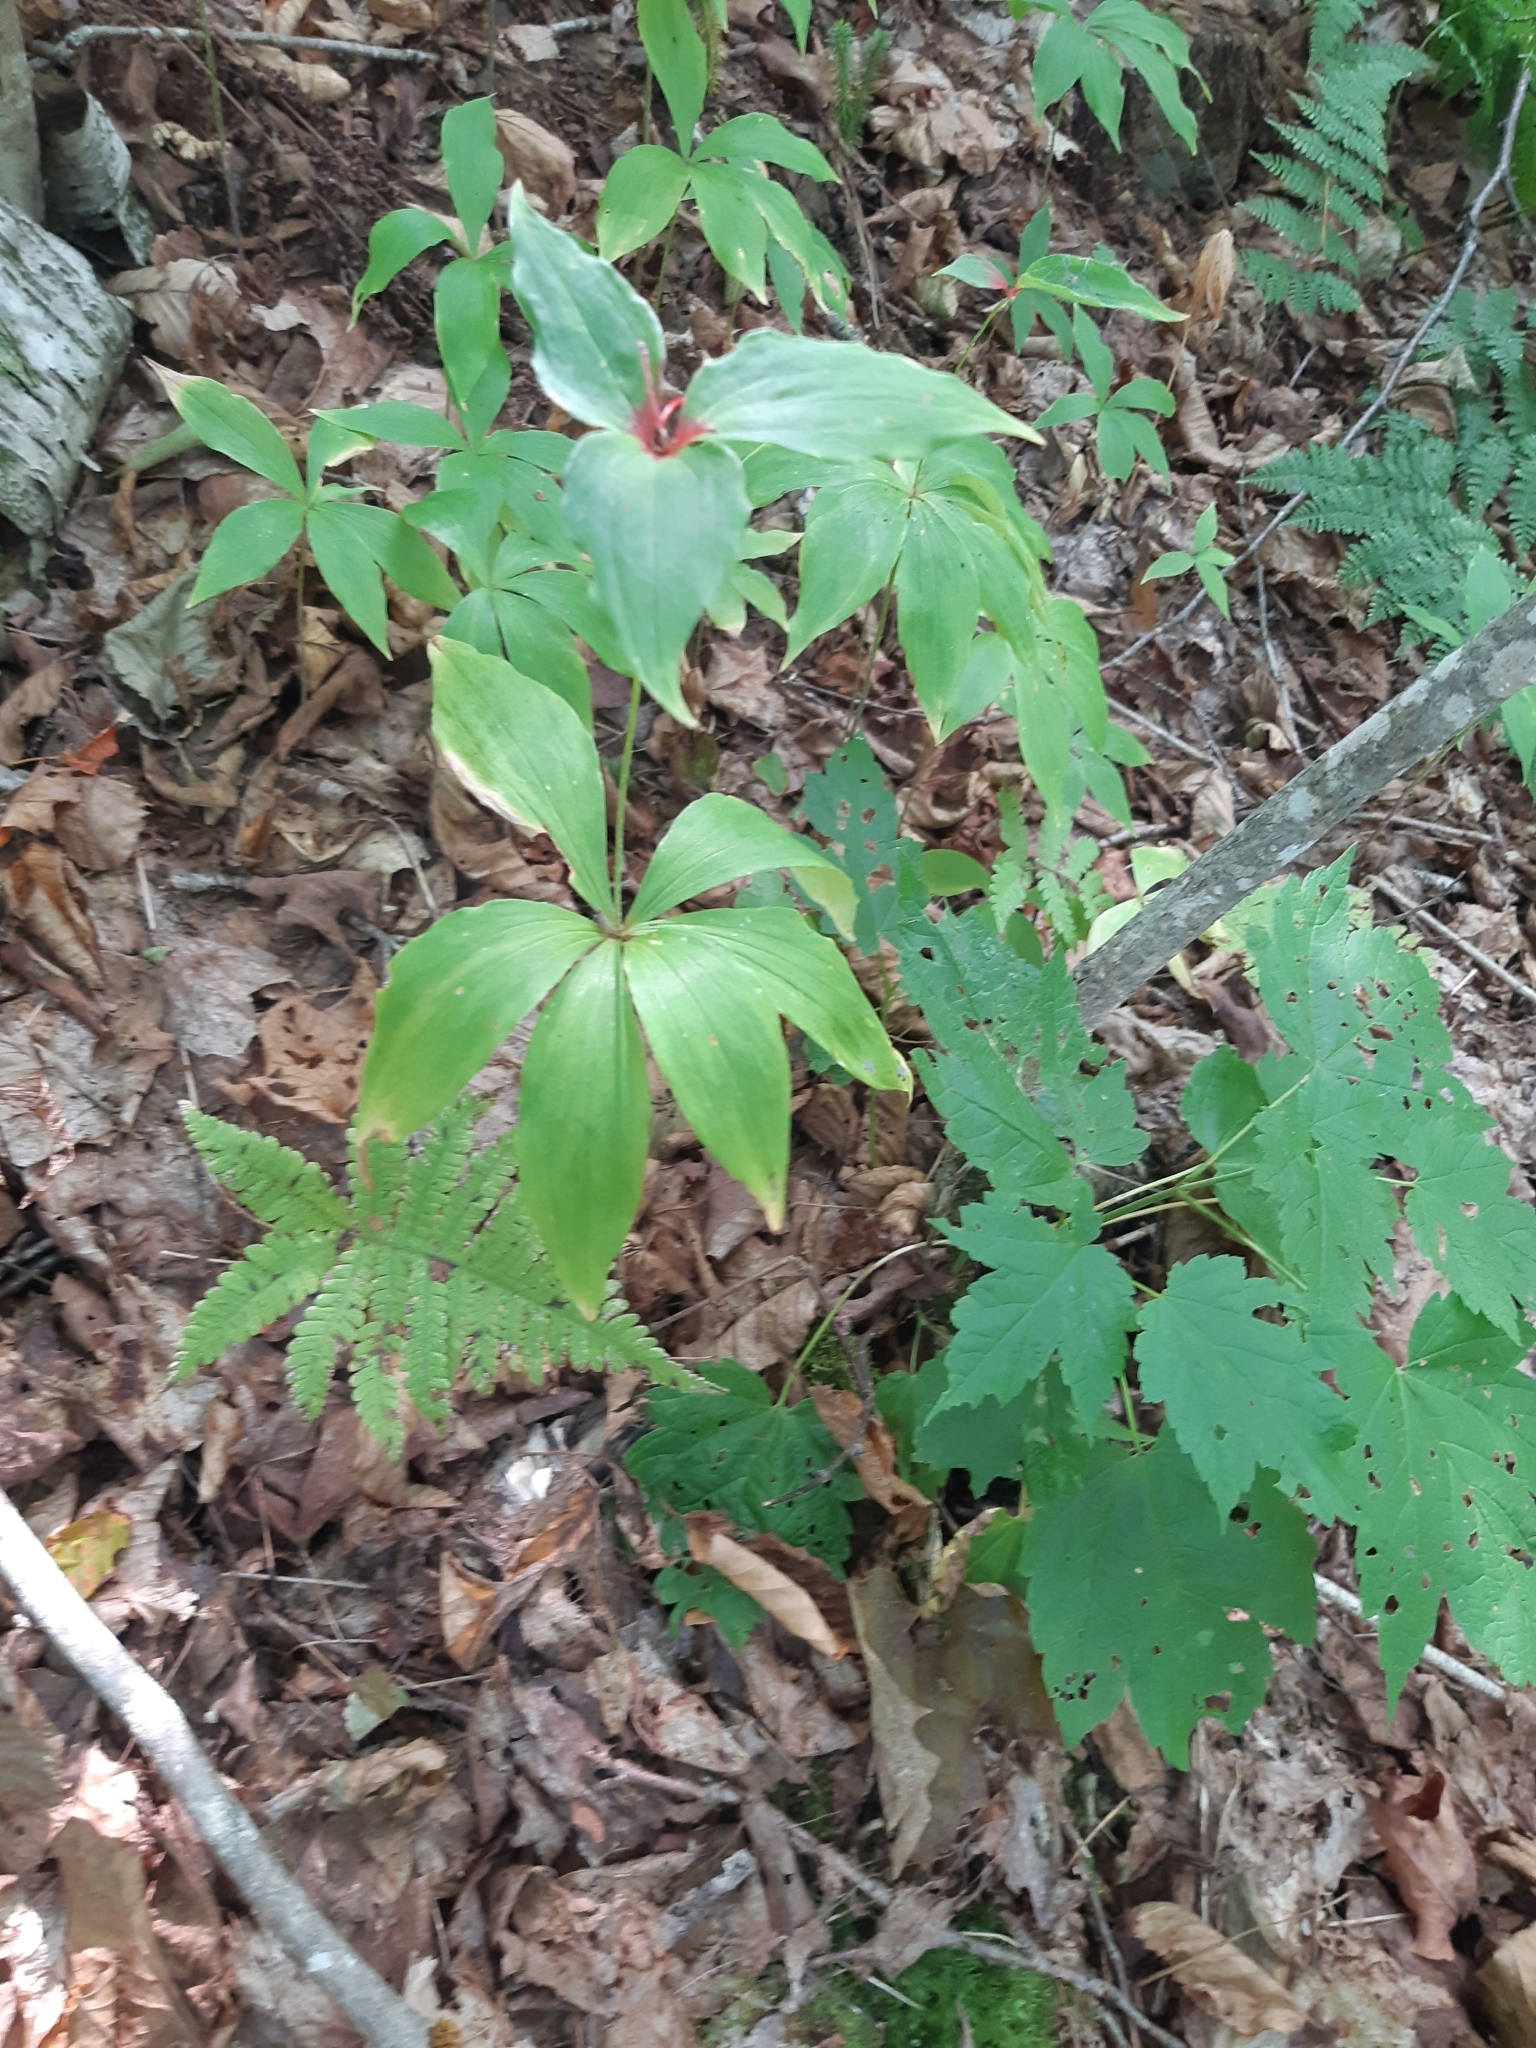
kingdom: Plantae
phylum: Tracheophyta
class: Liliopsida
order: Liliales
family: Liliaceae
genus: Medeola
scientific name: Medeola virginiana
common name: Indian cucumber-root
